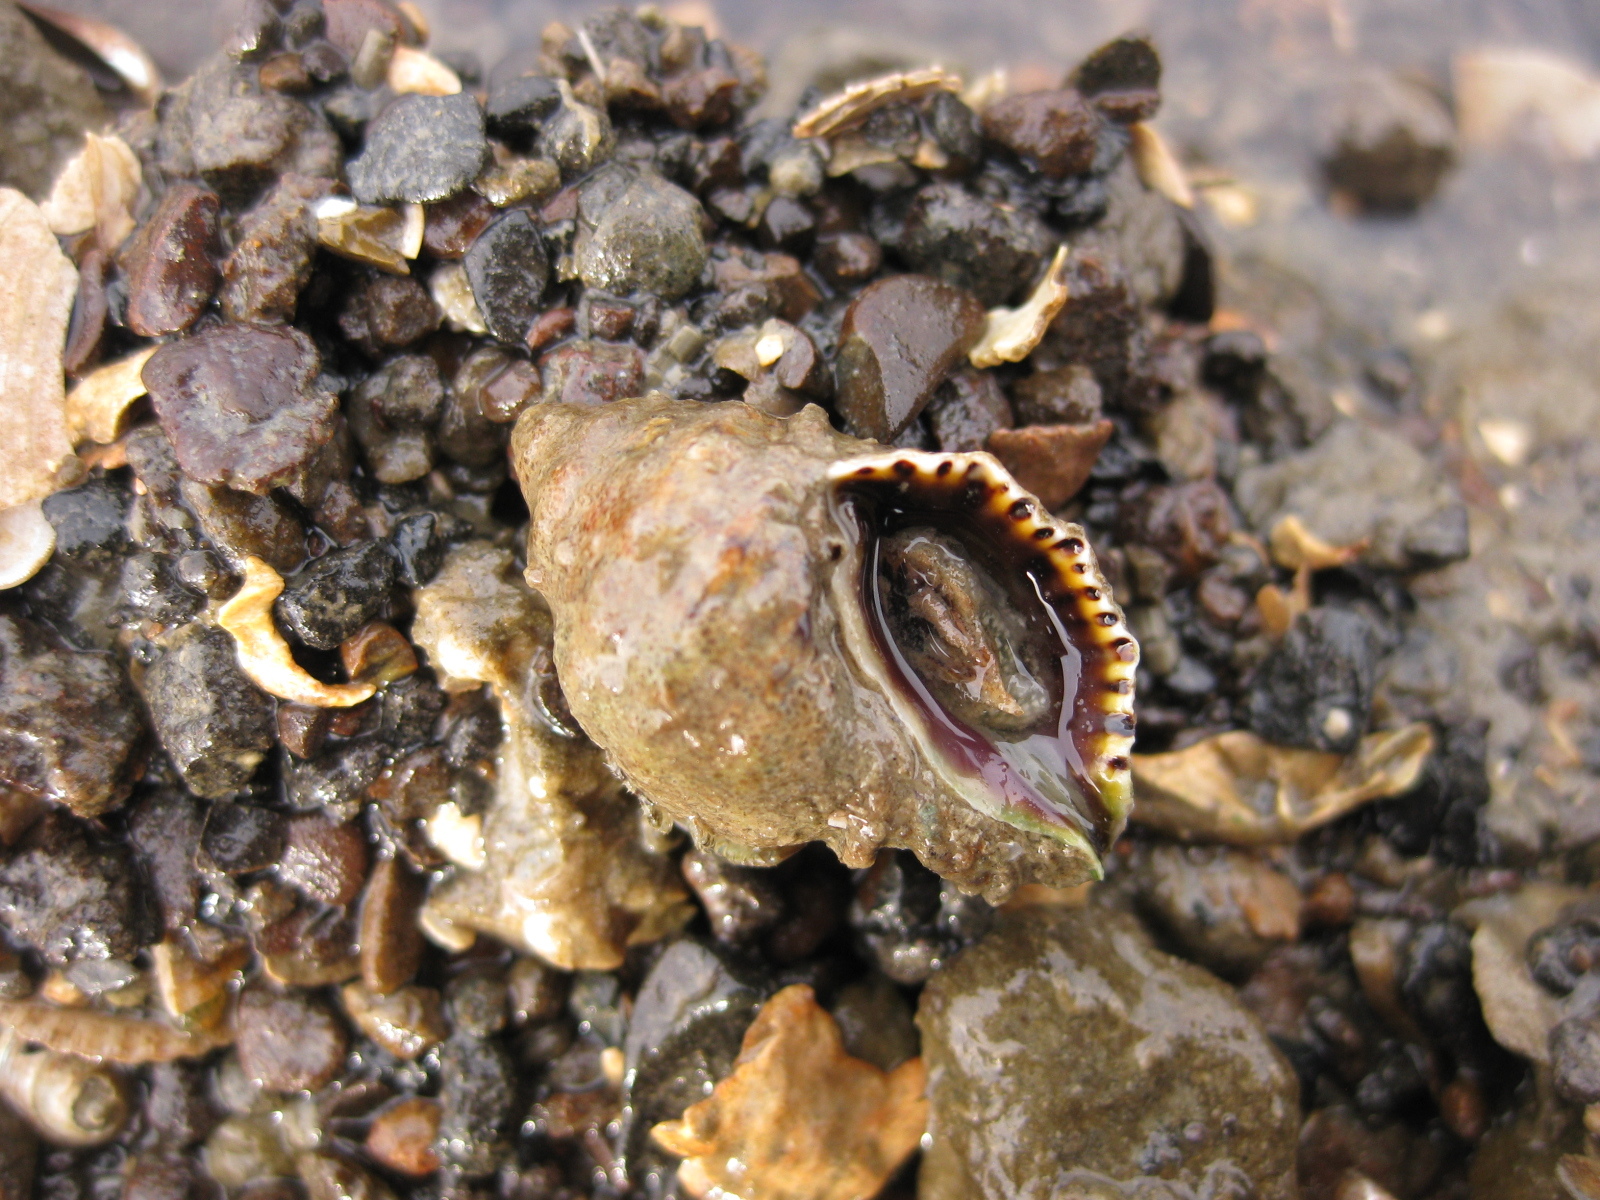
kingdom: Animalia
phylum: Mollusca
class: Gastropoda
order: Neogastropoda
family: Muricidae
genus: Haustrum
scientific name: Haustrum scobina
